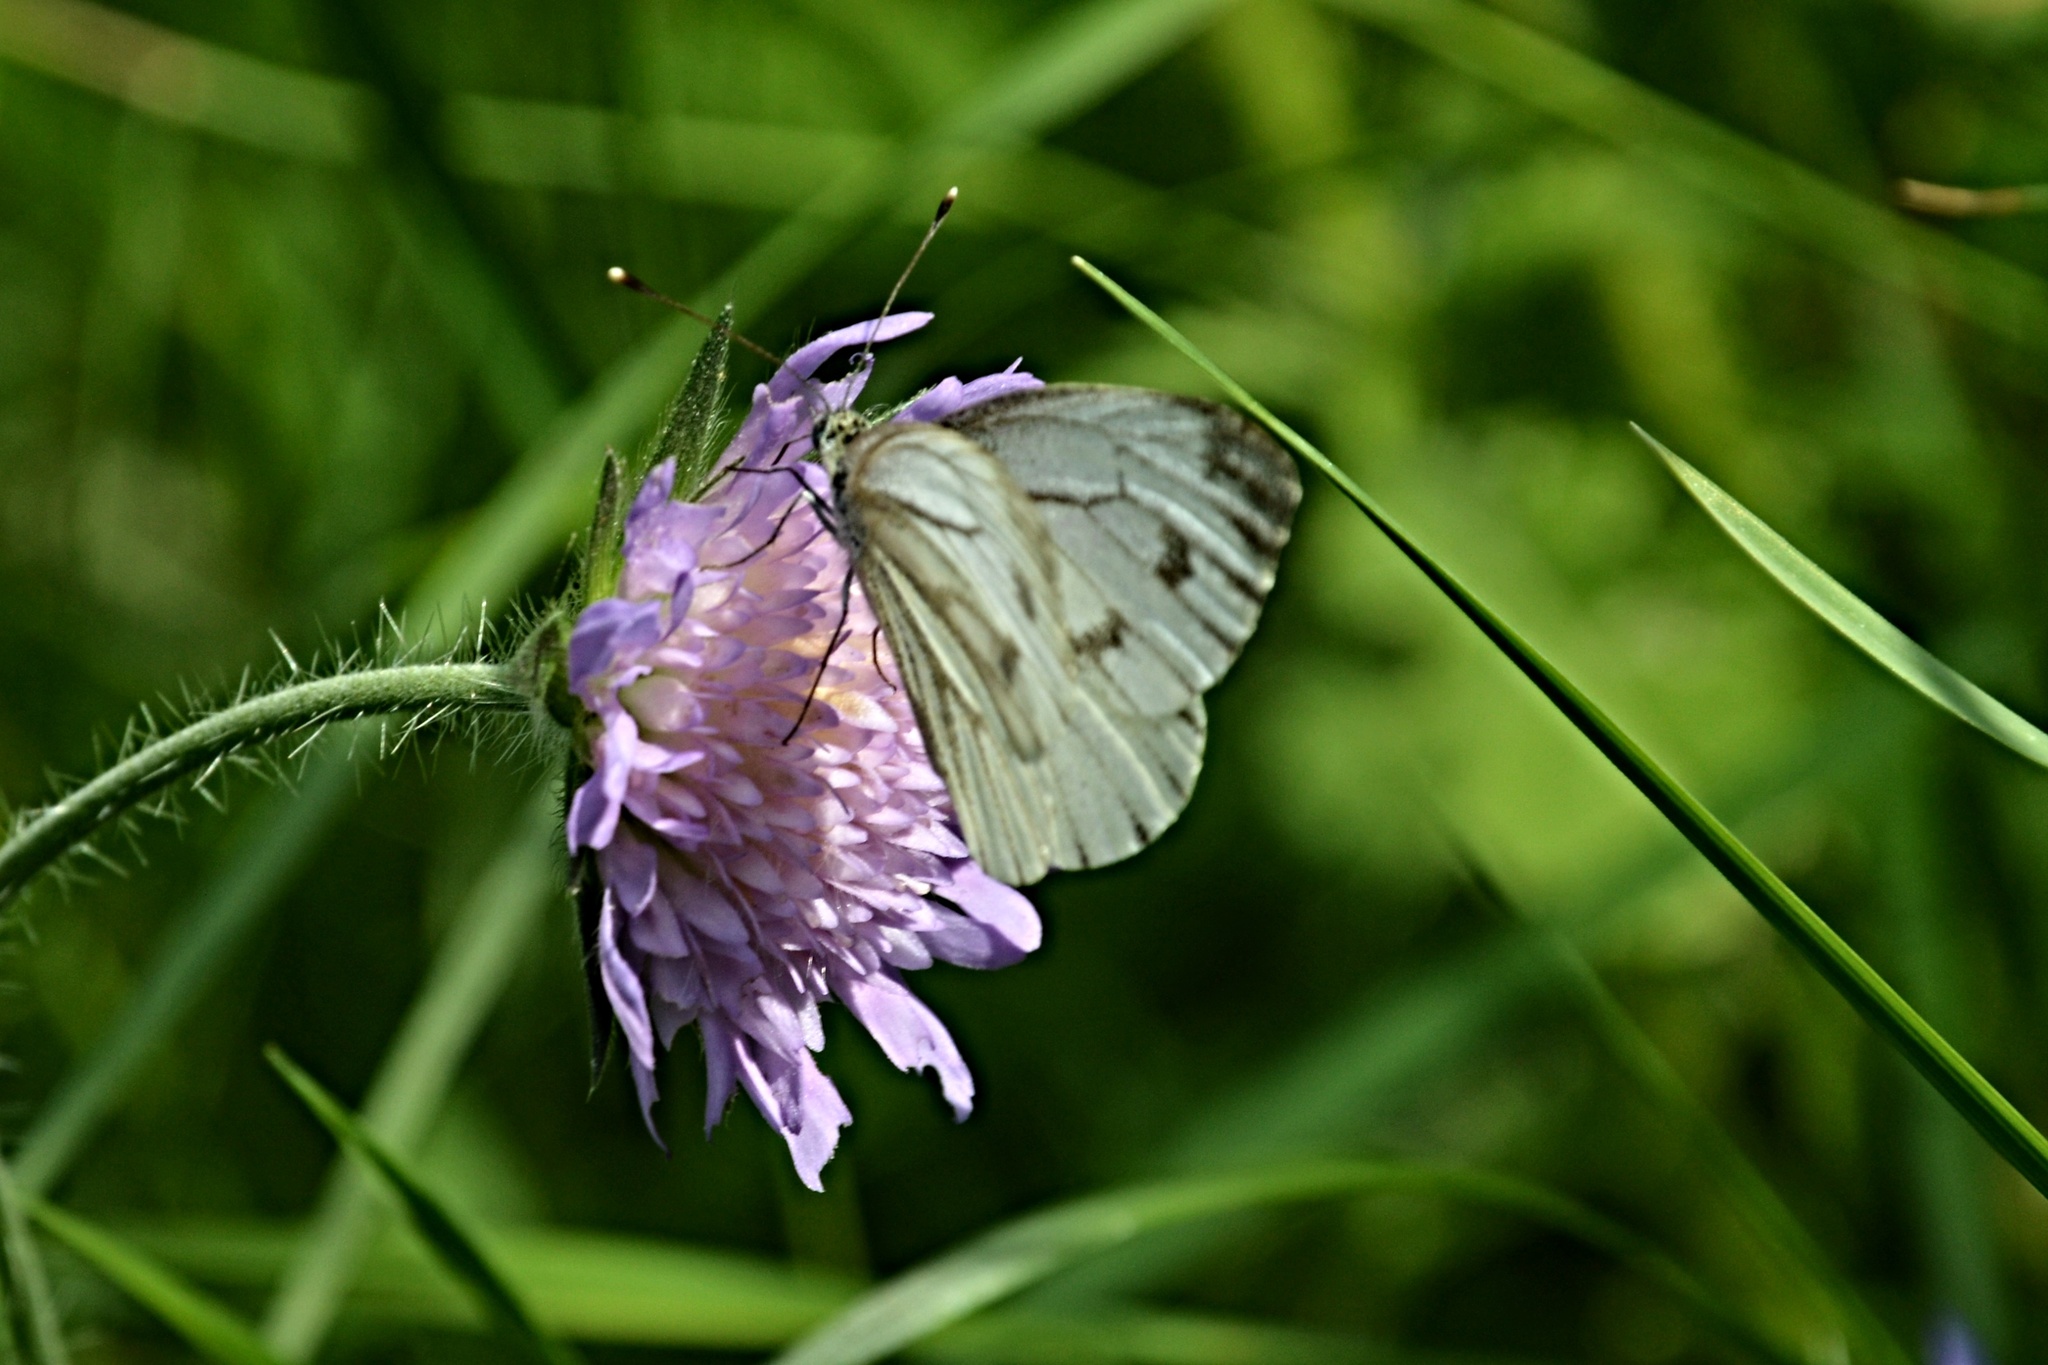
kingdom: Animalia
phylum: Arthropoda
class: Insecta
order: Lepidoptera
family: Pieridae
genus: Pieris
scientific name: Pieris napi
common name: Green-veined white
